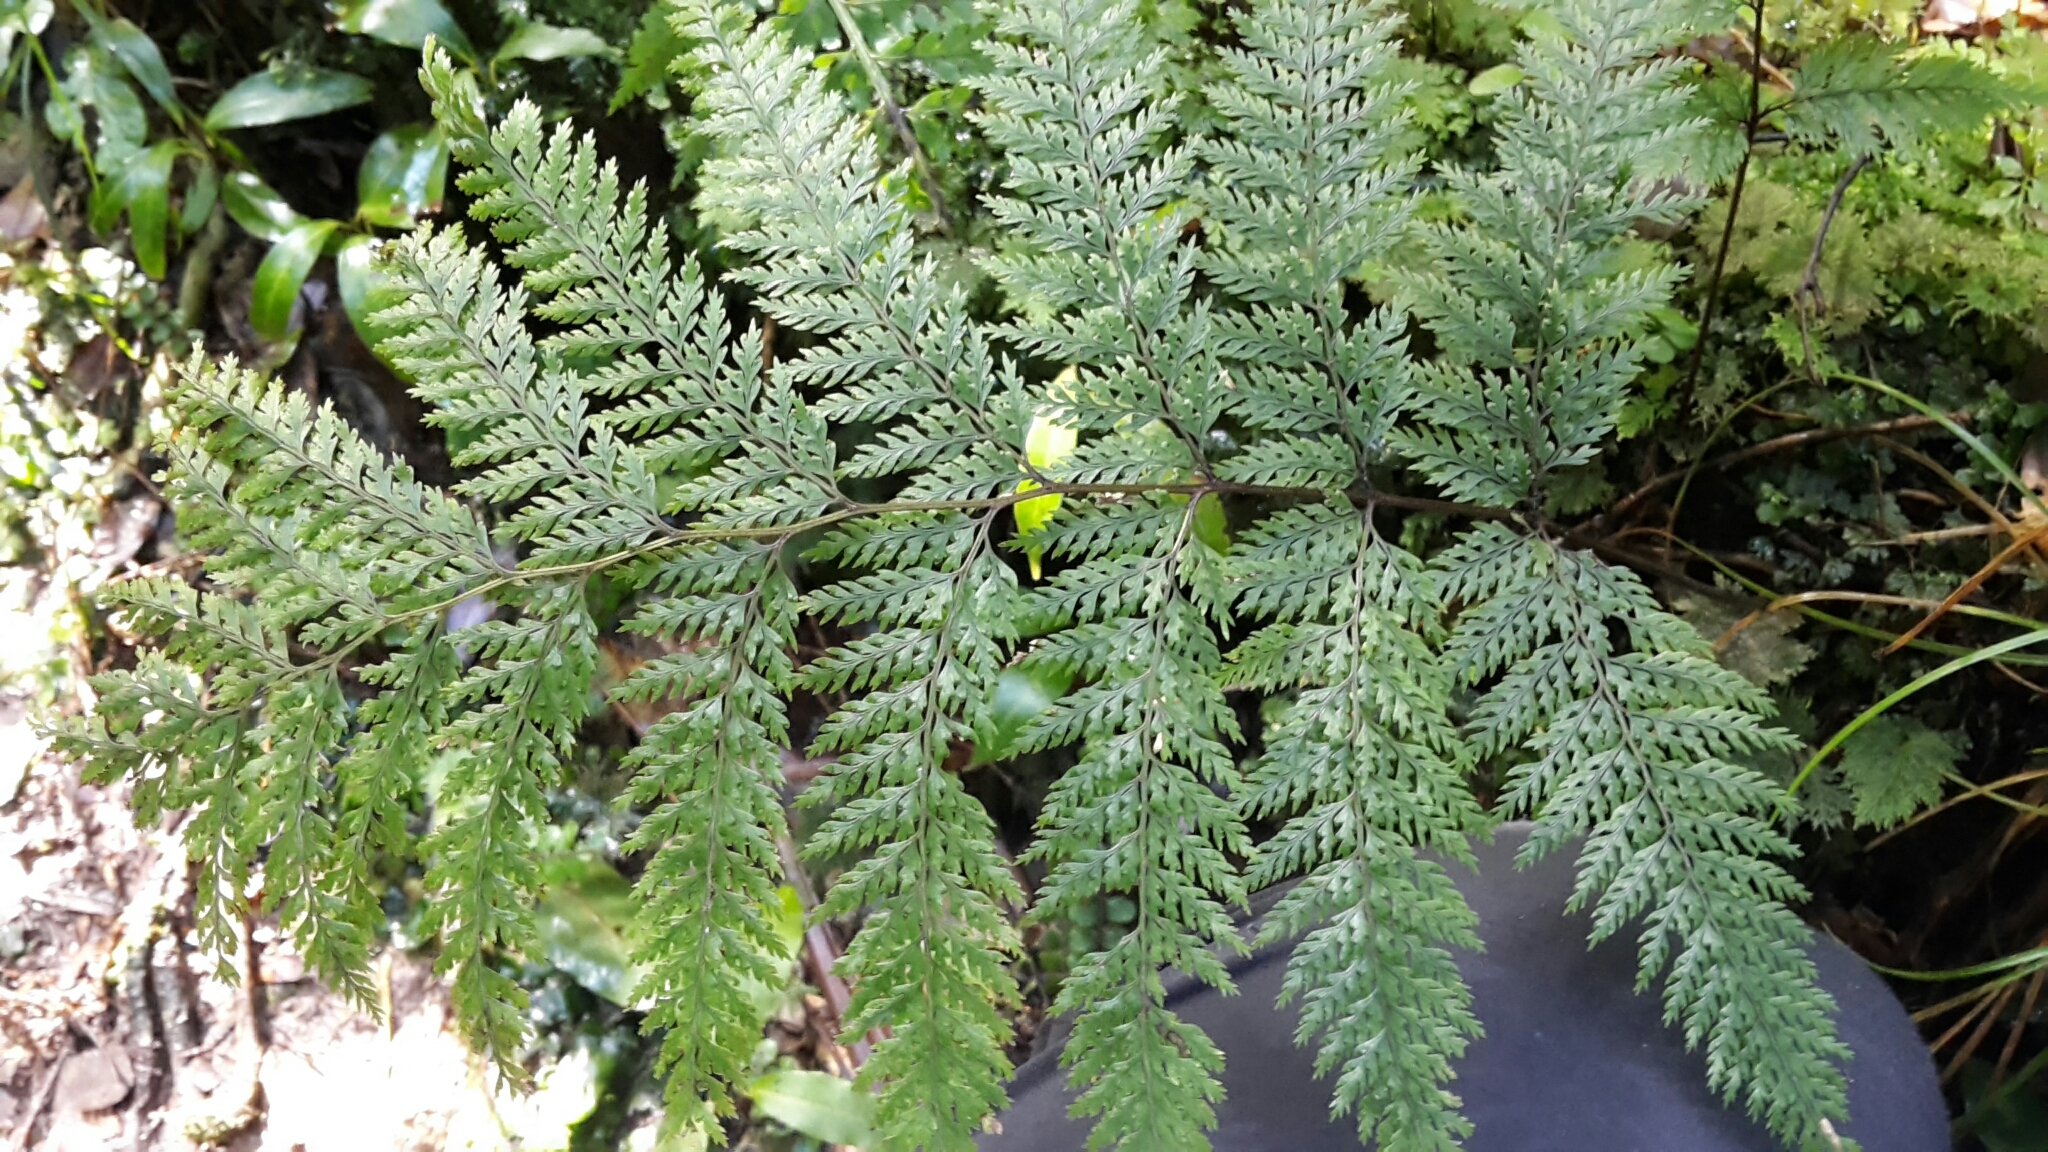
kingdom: Plantae
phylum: Tracheophyta
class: Polypodiopsida
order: Polypodiales
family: Dennstaedtiaceae
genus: Dennstaedtia
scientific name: Dennstaedtia novae-zelandiae
